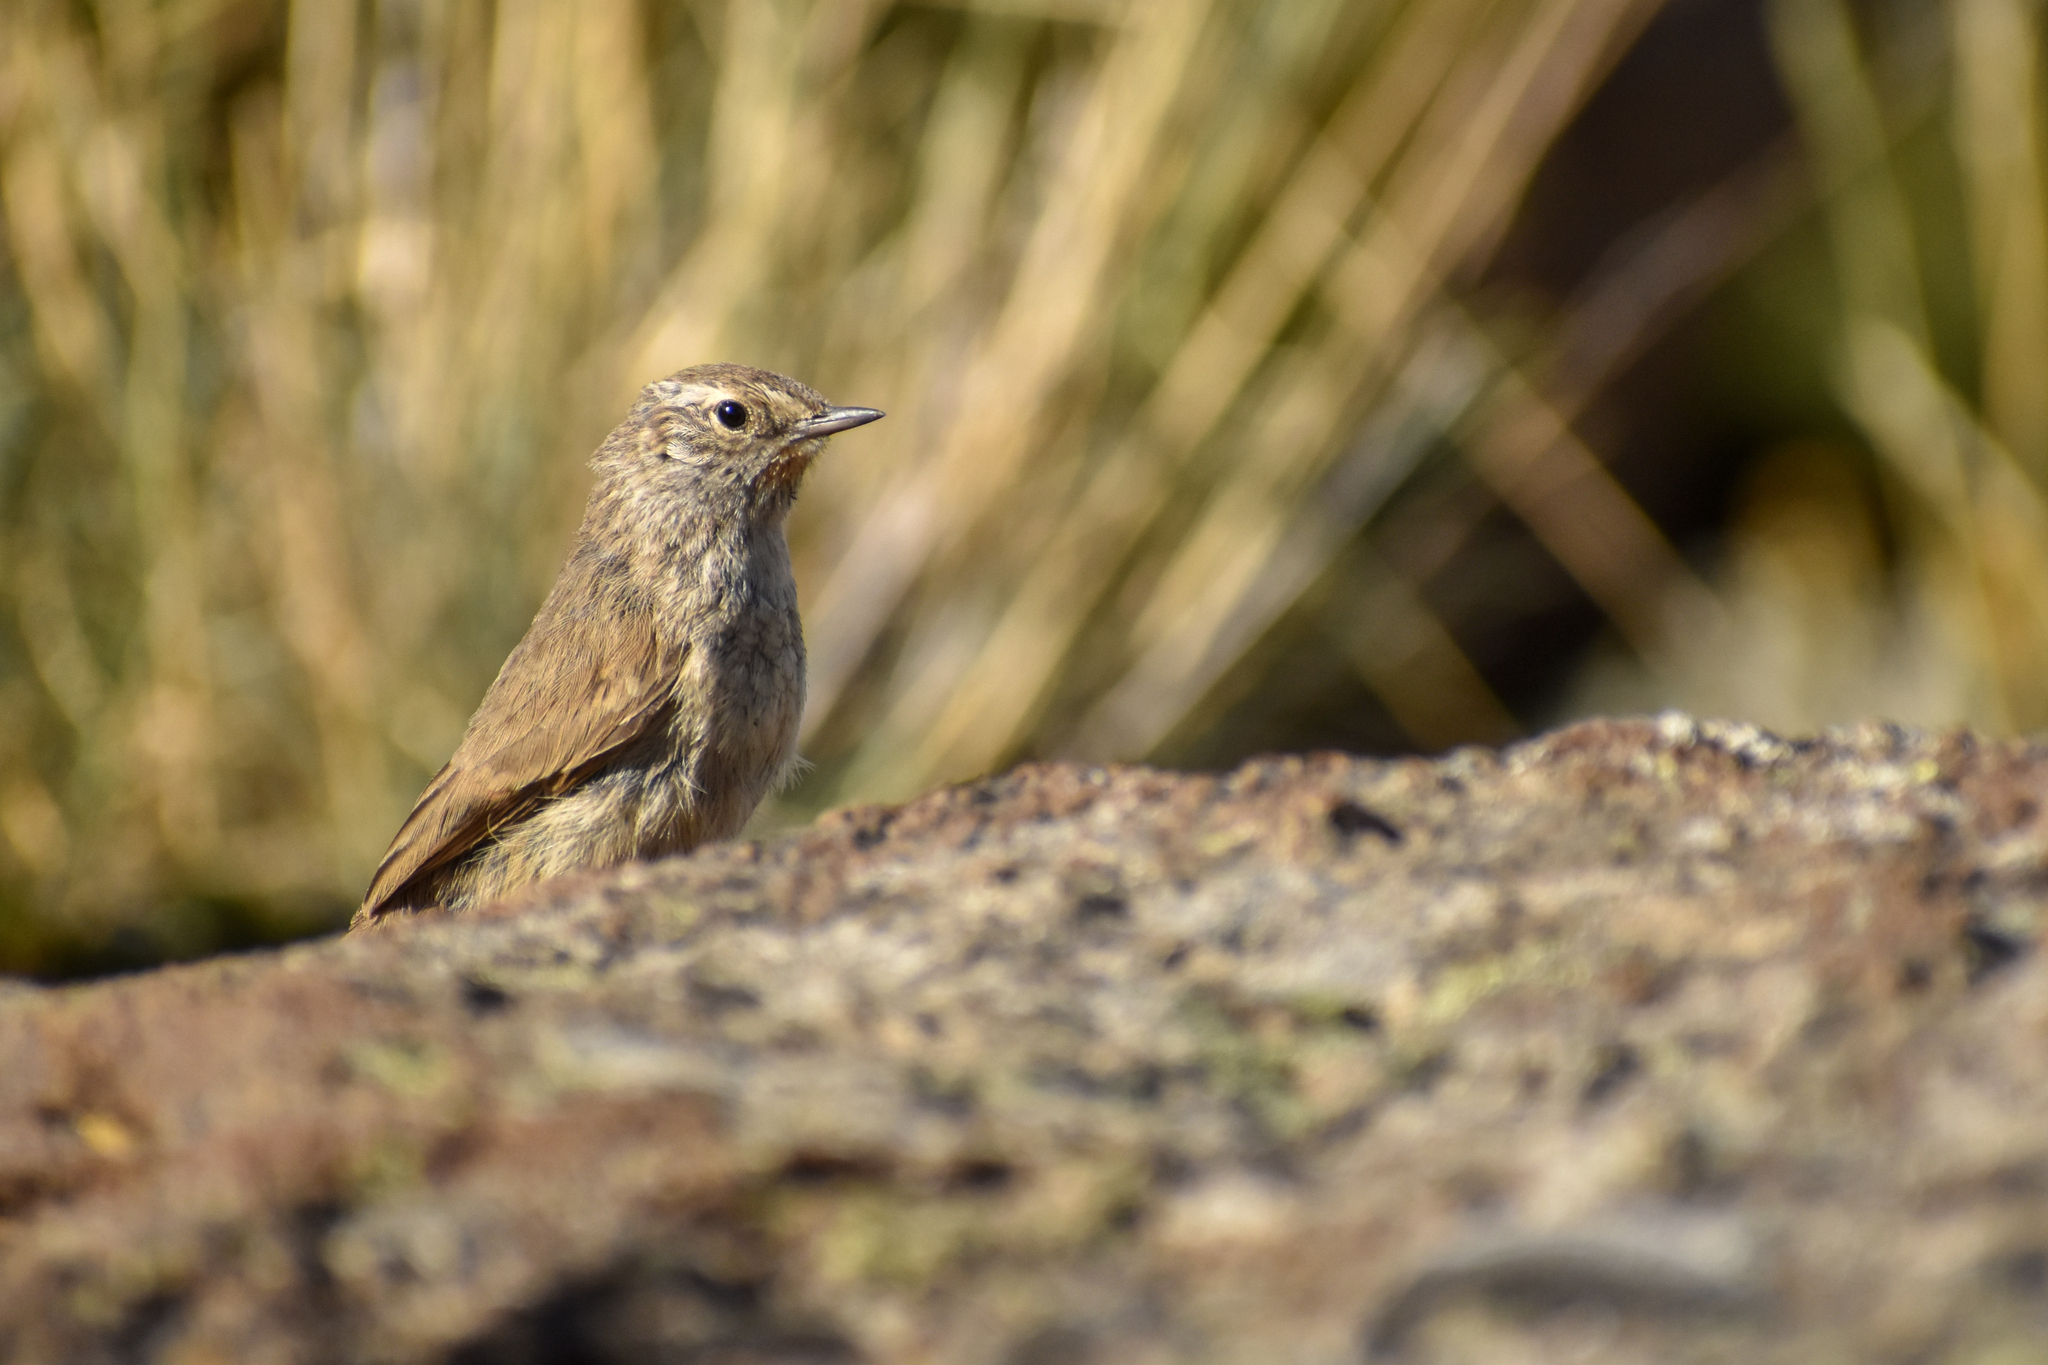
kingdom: Animalia
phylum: Chordata
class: Aves
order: Passeriformes
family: Furnariidae
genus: Asthenes
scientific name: Asthenes modesta
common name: Cordilleran canastero
